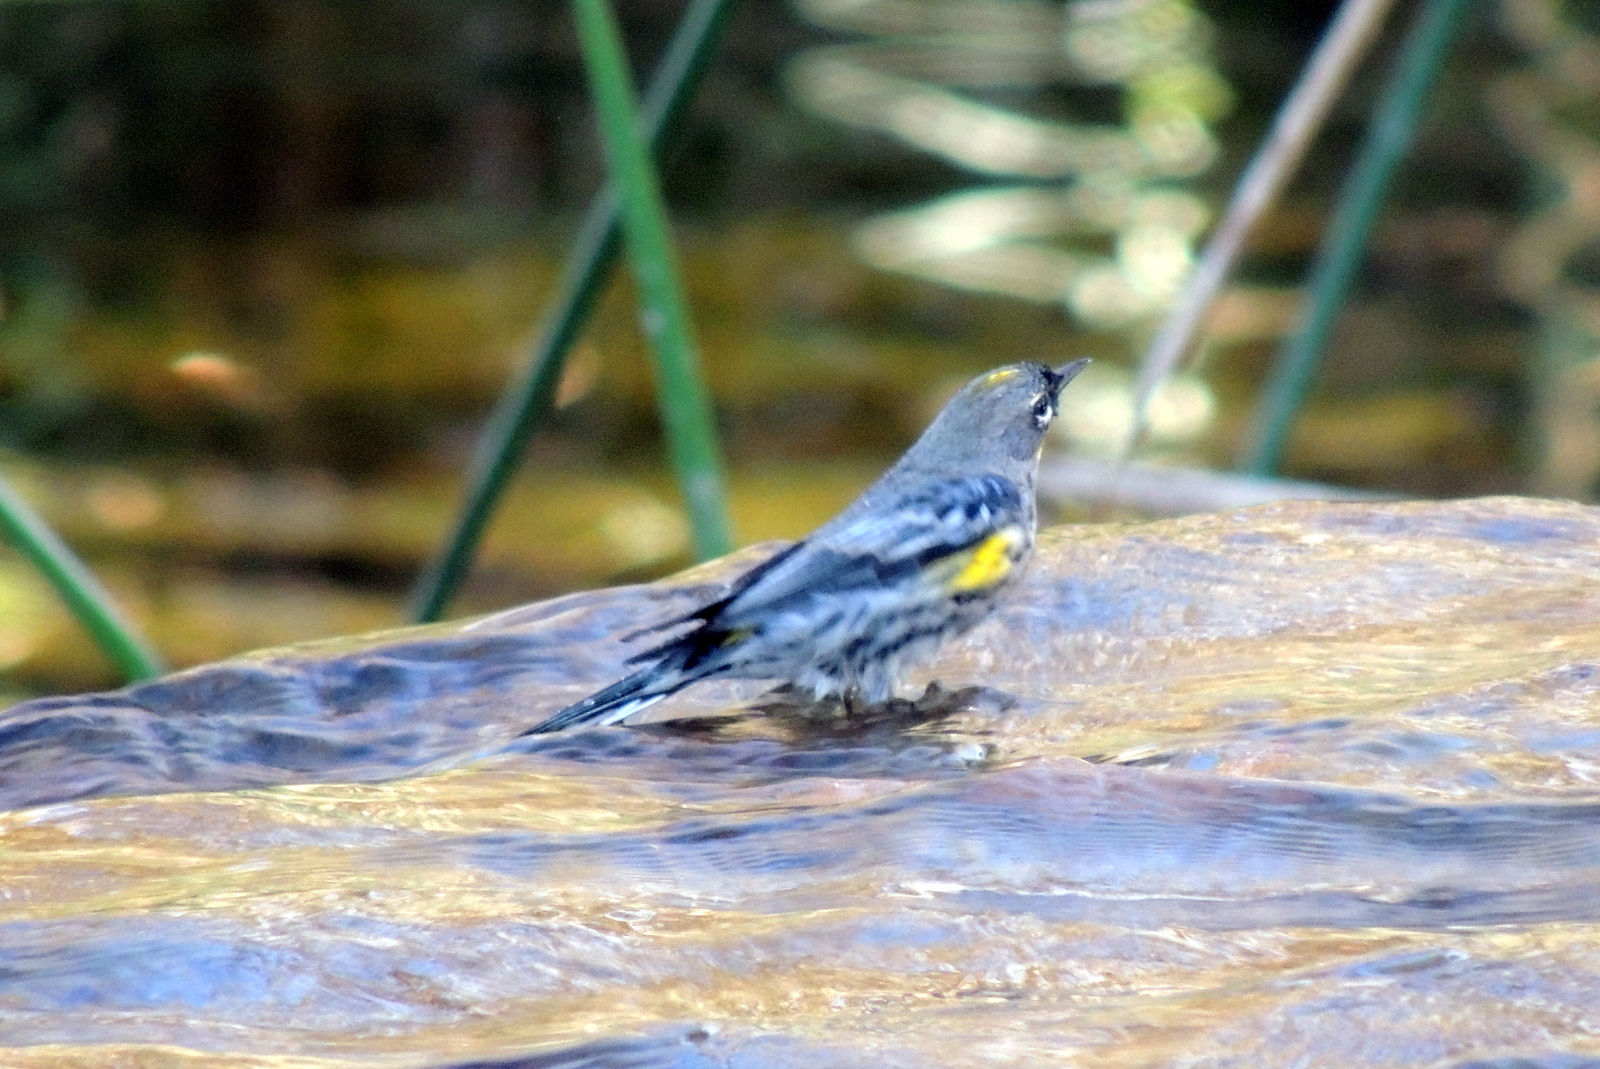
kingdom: Animalia
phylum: Chordata
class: Aves
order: Passeriformes
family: Parulidae
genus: Setophaga
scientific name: Setophaga coronata
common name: Myrtle warbler
